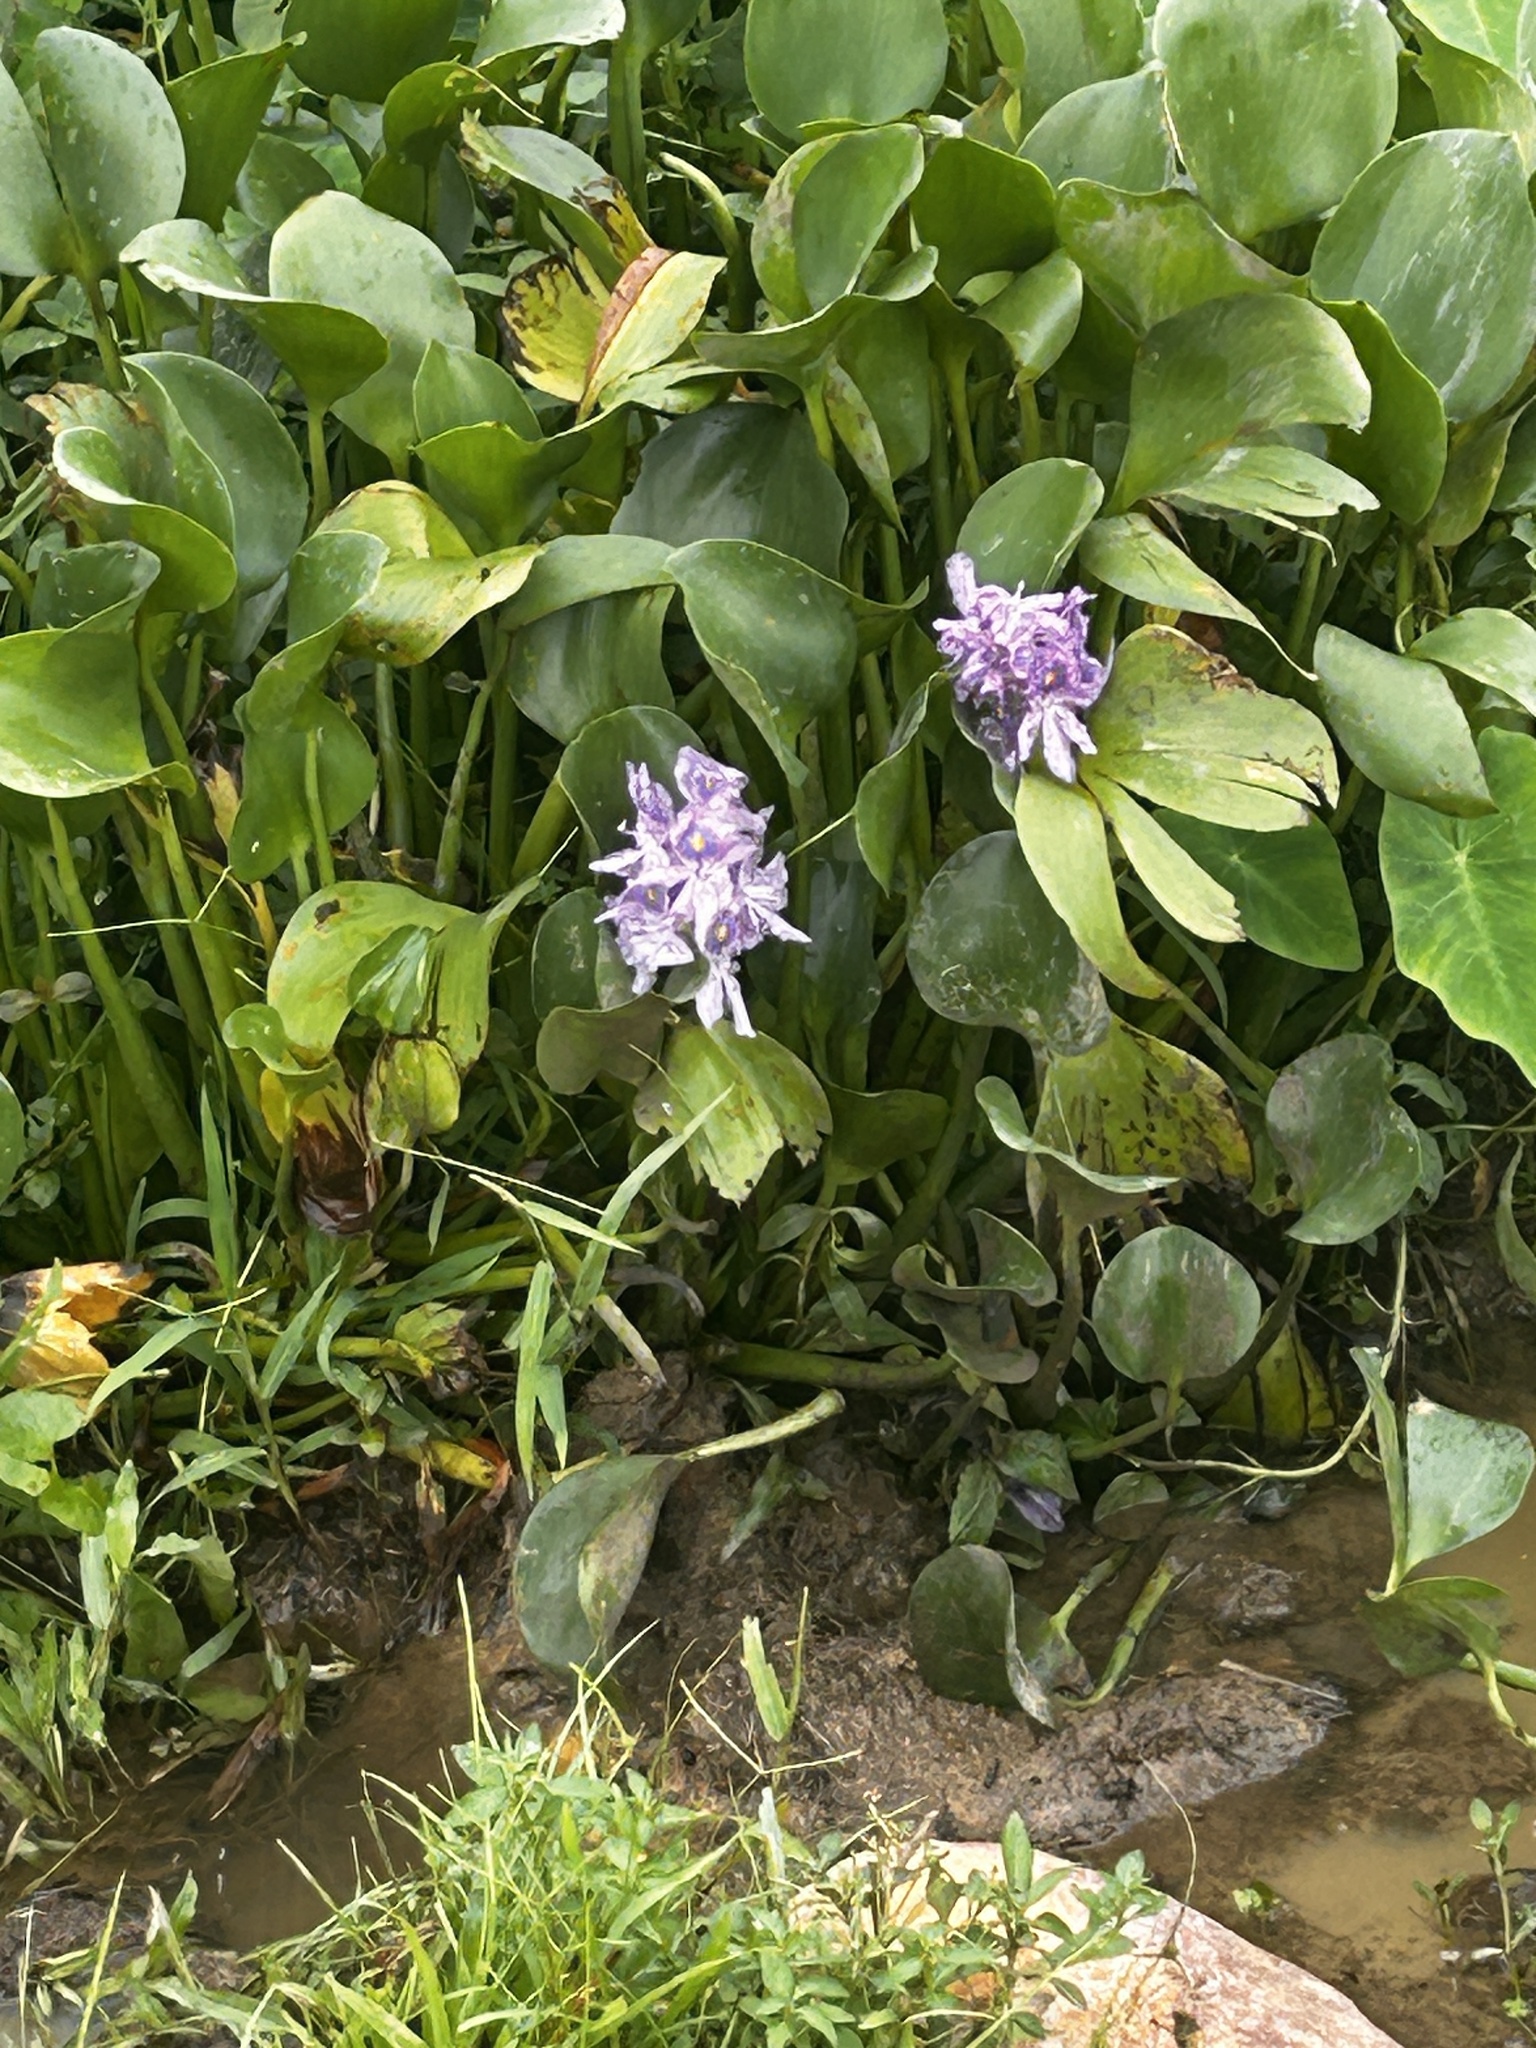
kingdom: Plantae
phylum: Tracheophyta
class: Liliopsida
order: Commelinales
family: Pontederiaceae
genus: Pontederia
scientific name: Pontederia crassipes
